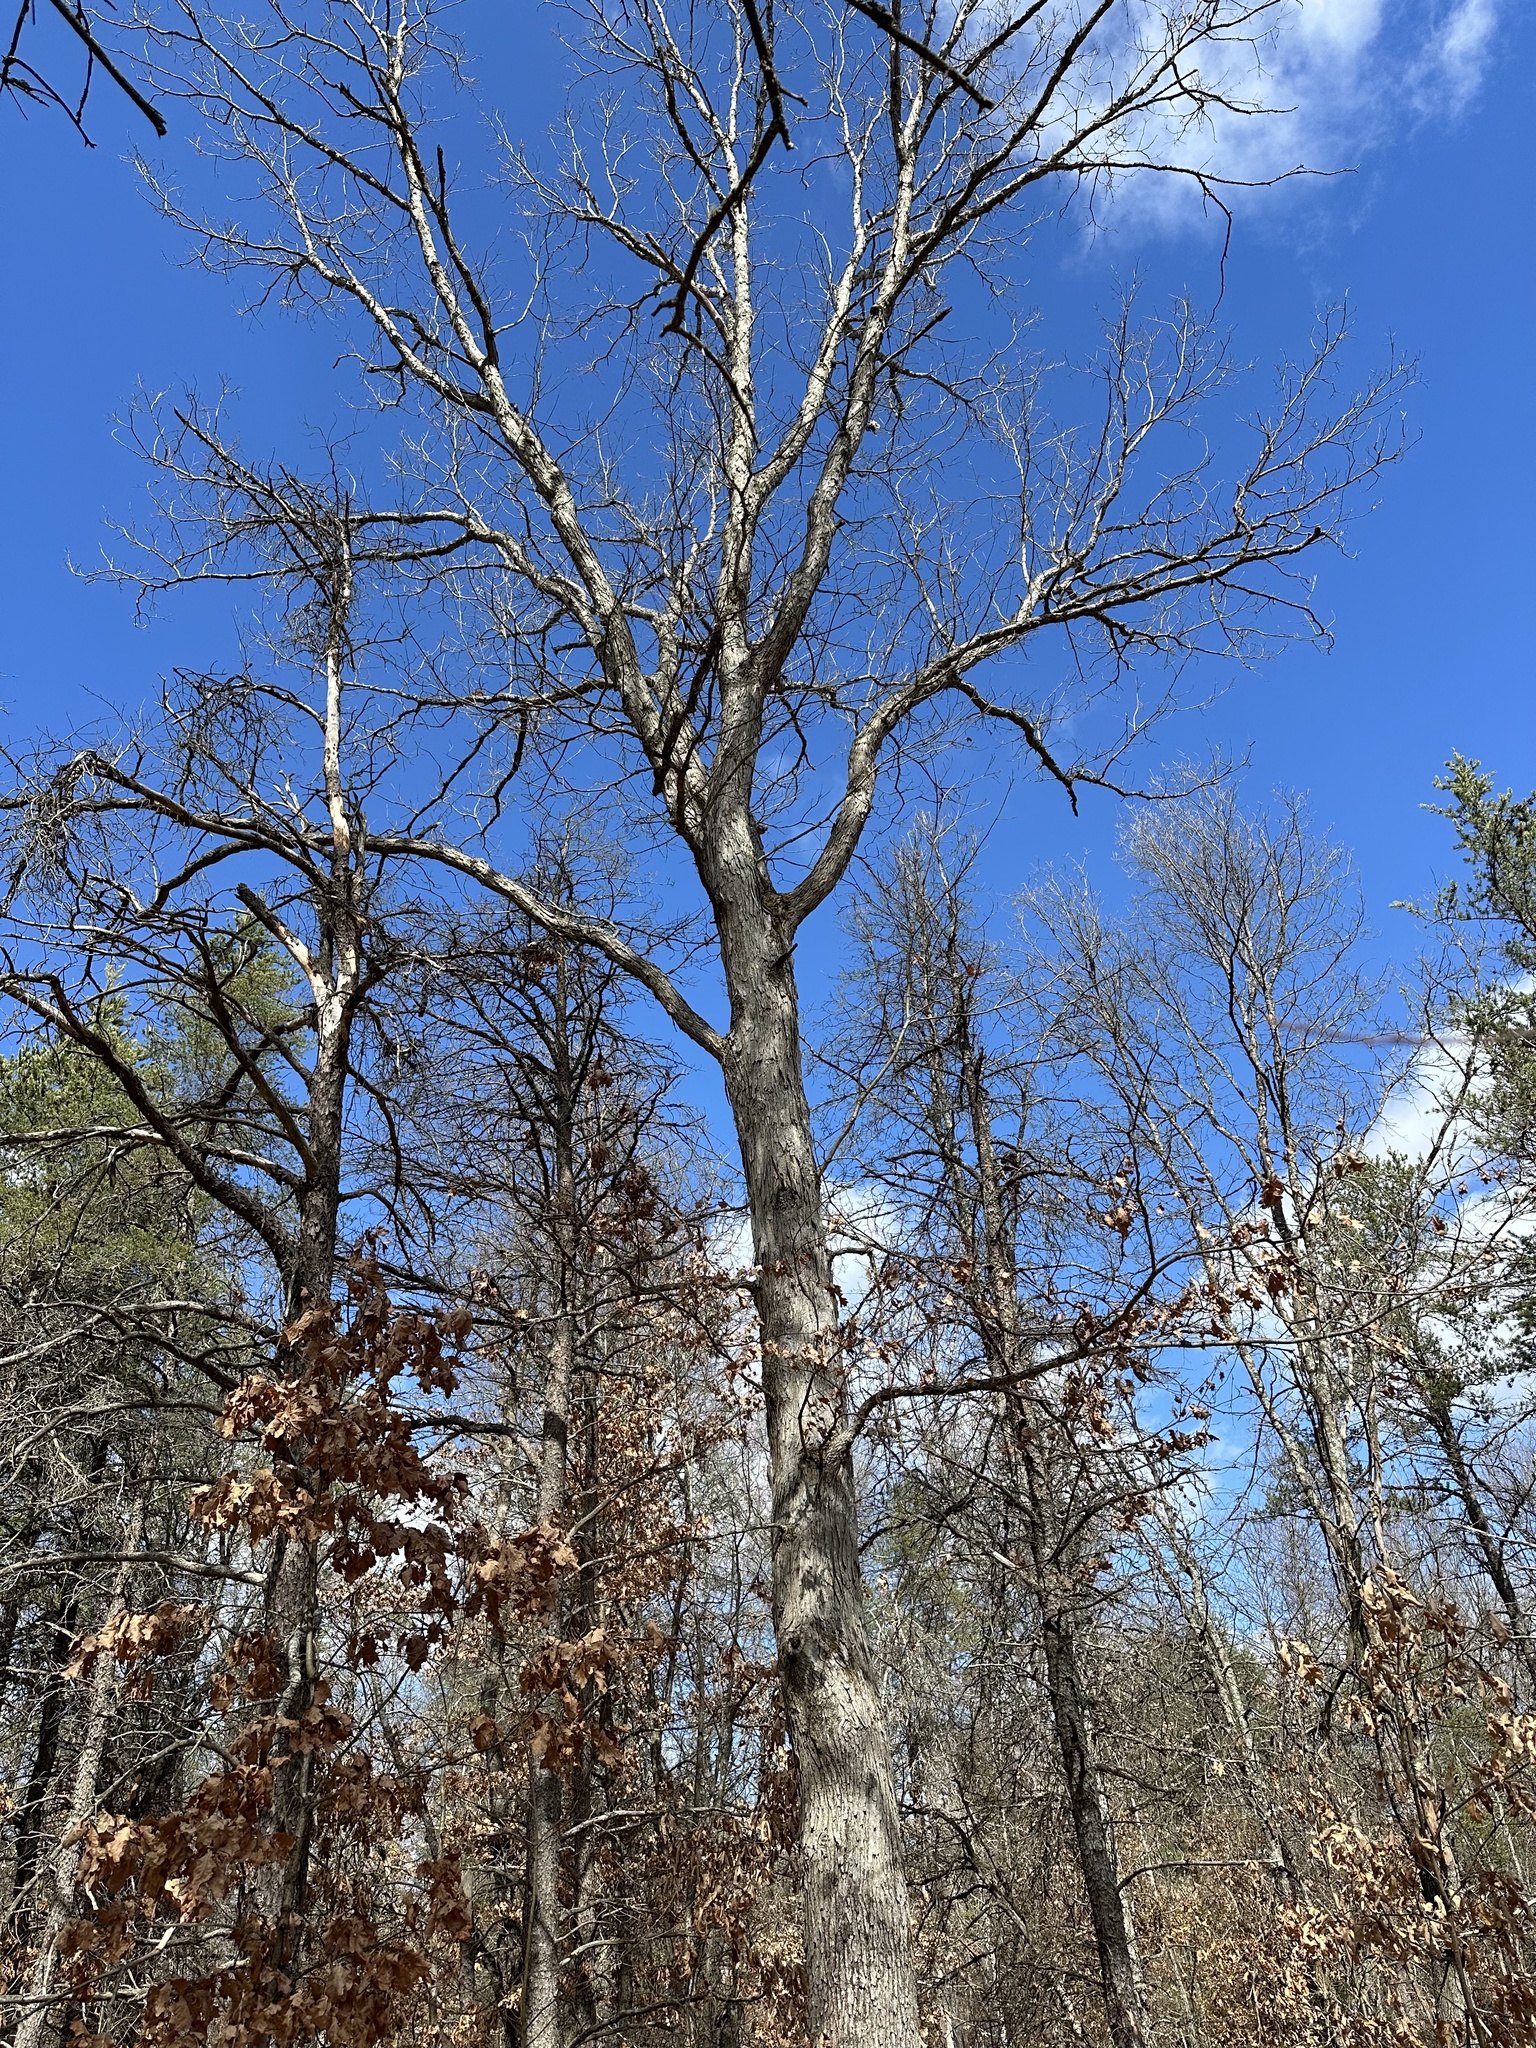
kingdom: Plantae
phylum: Tracheophyta
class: Magnoliopsida
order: Fagales
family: Fagaceae
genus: Quercus
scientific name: Quercus alba
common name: White oak
